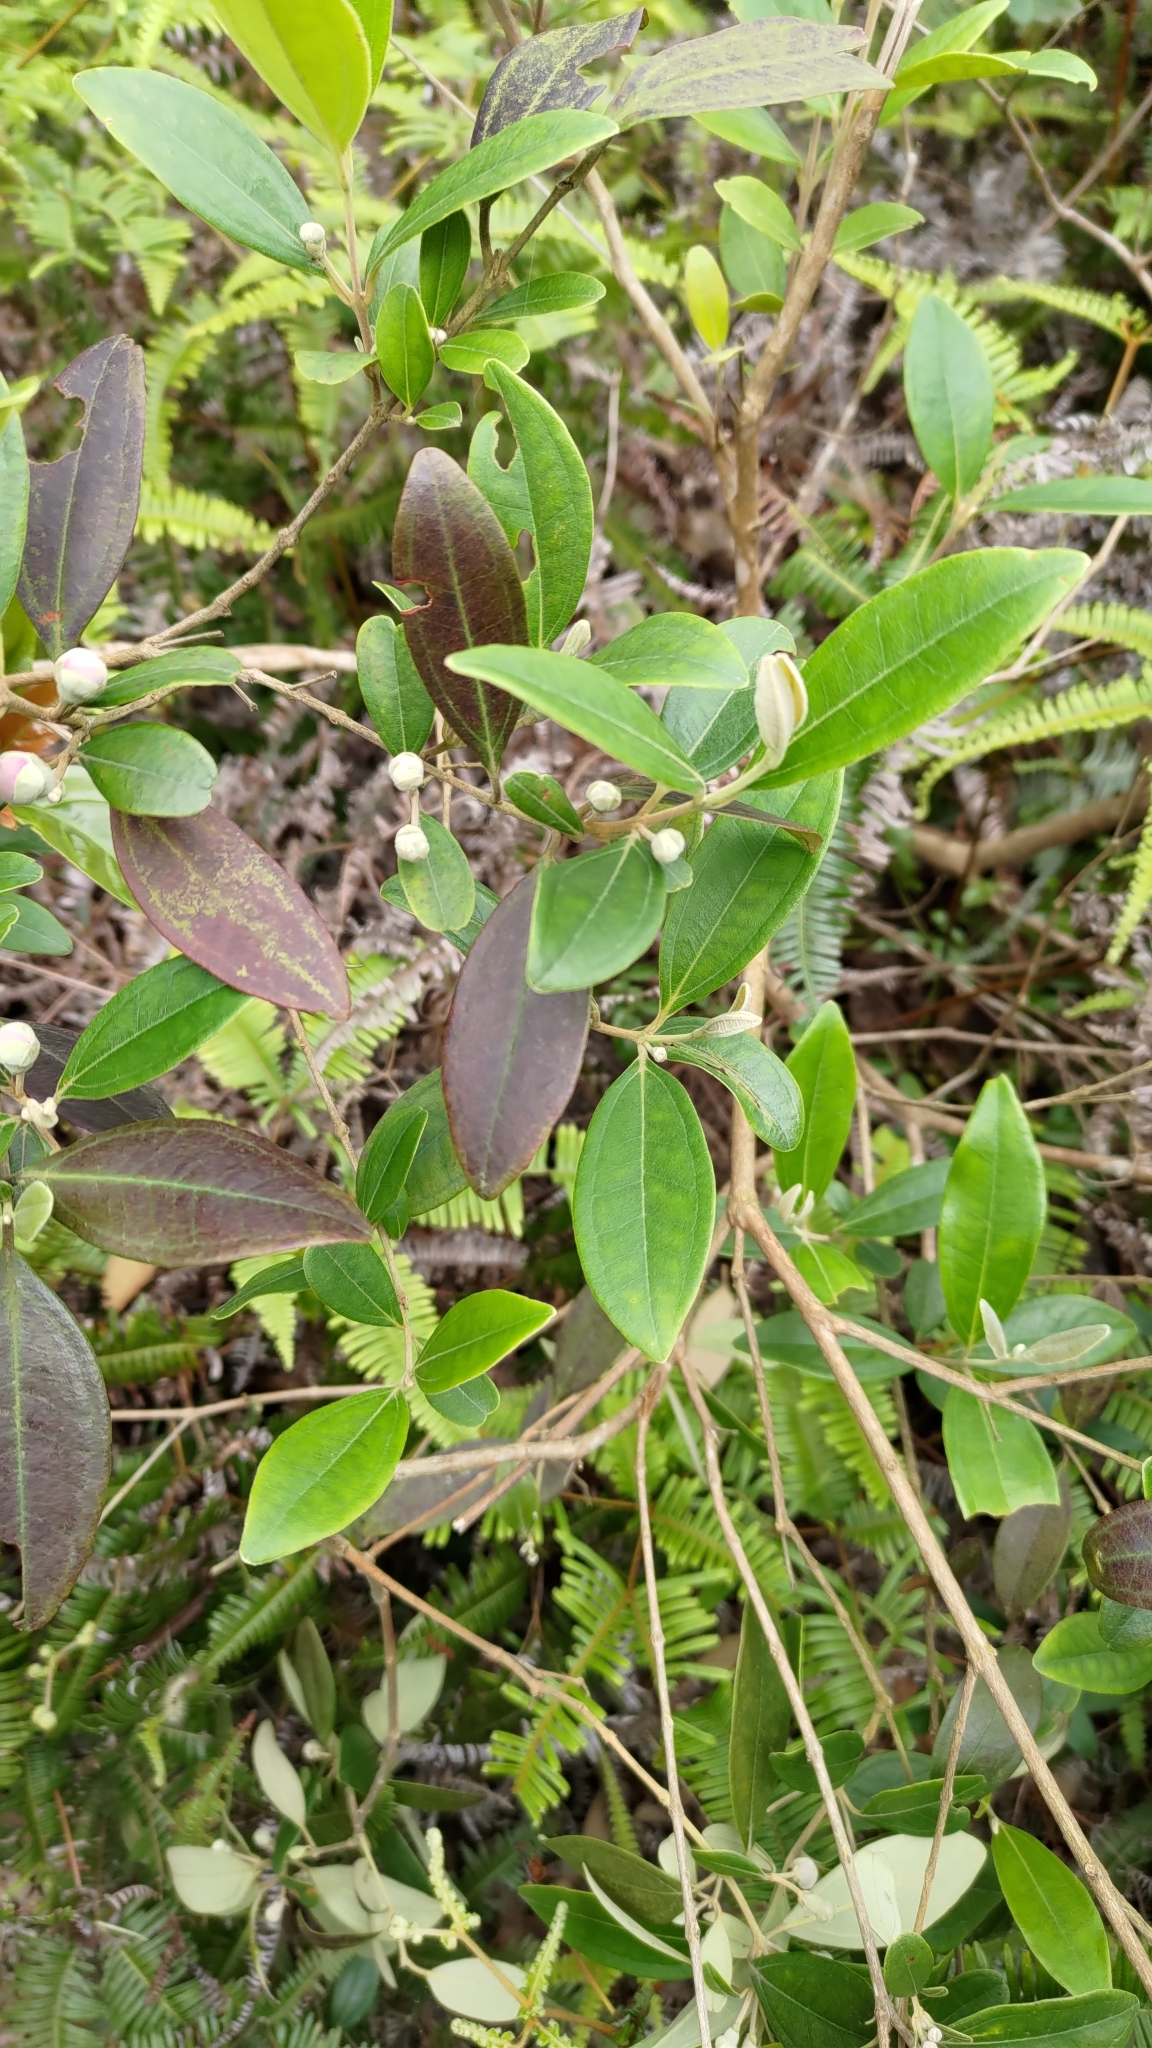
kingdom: Plantae
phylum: Tracheophyta
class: Magnoliopsida
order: Myrtales
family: Myrtaceae
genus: Rhodomyrtus
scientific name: Rhodomyrtus tomentosa
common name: Rose myrtle
